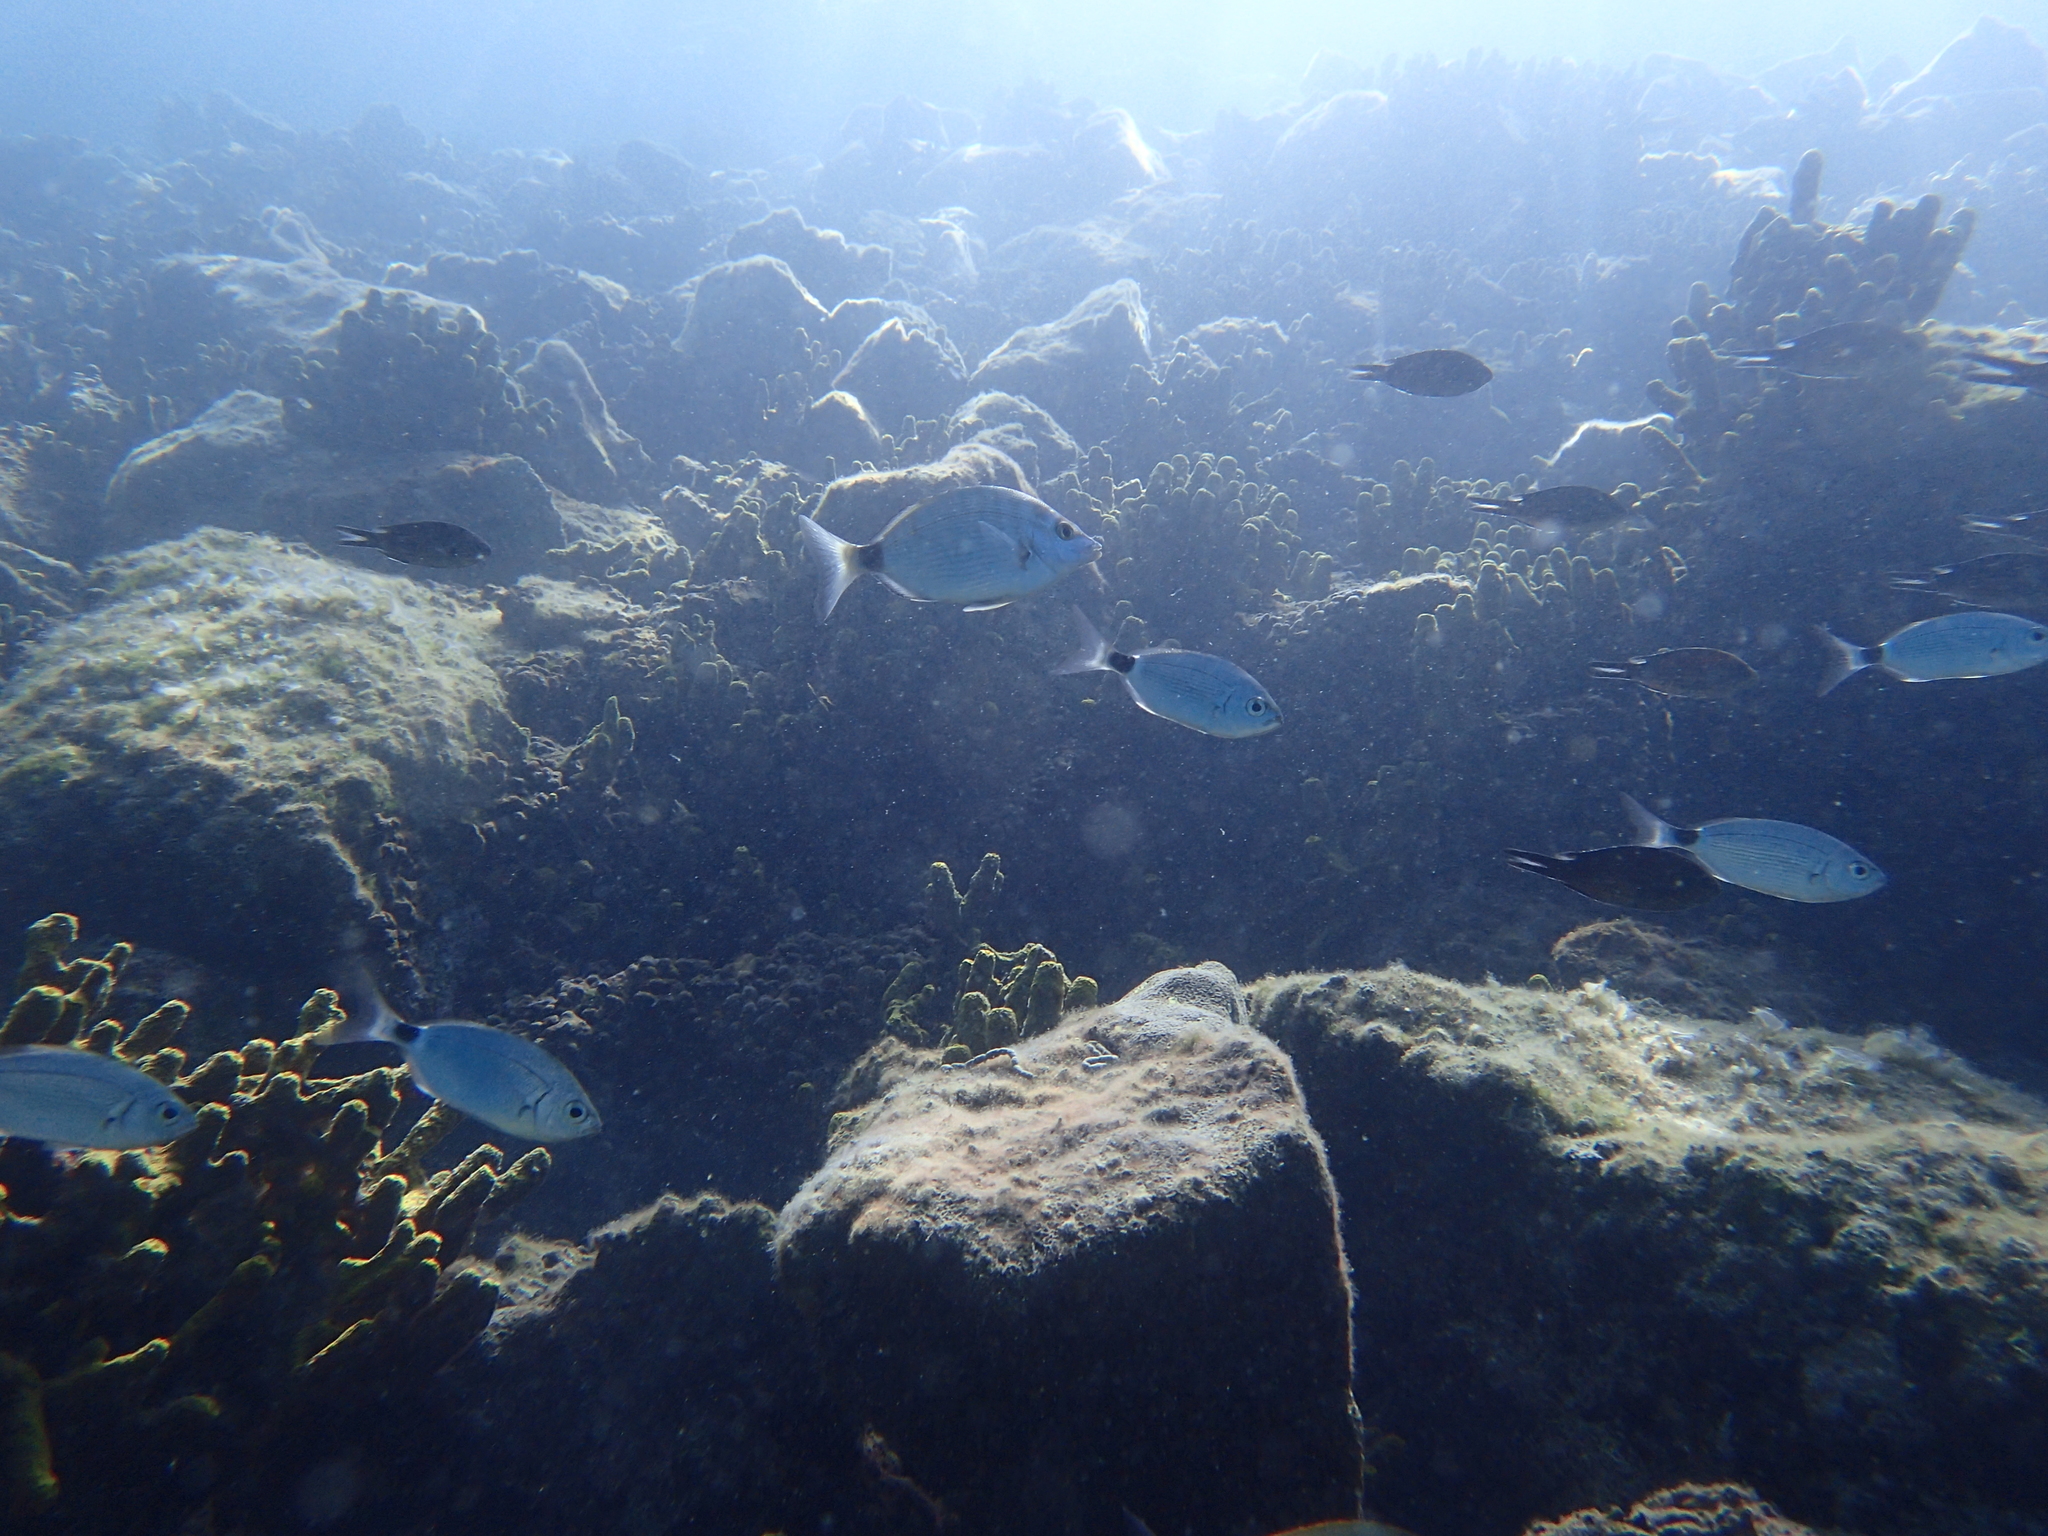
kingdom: Animalia
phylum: Chordata
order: Perciformes
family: Sparidae
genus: Oblada
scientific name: Oblada melanura
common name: Saddled seabream
